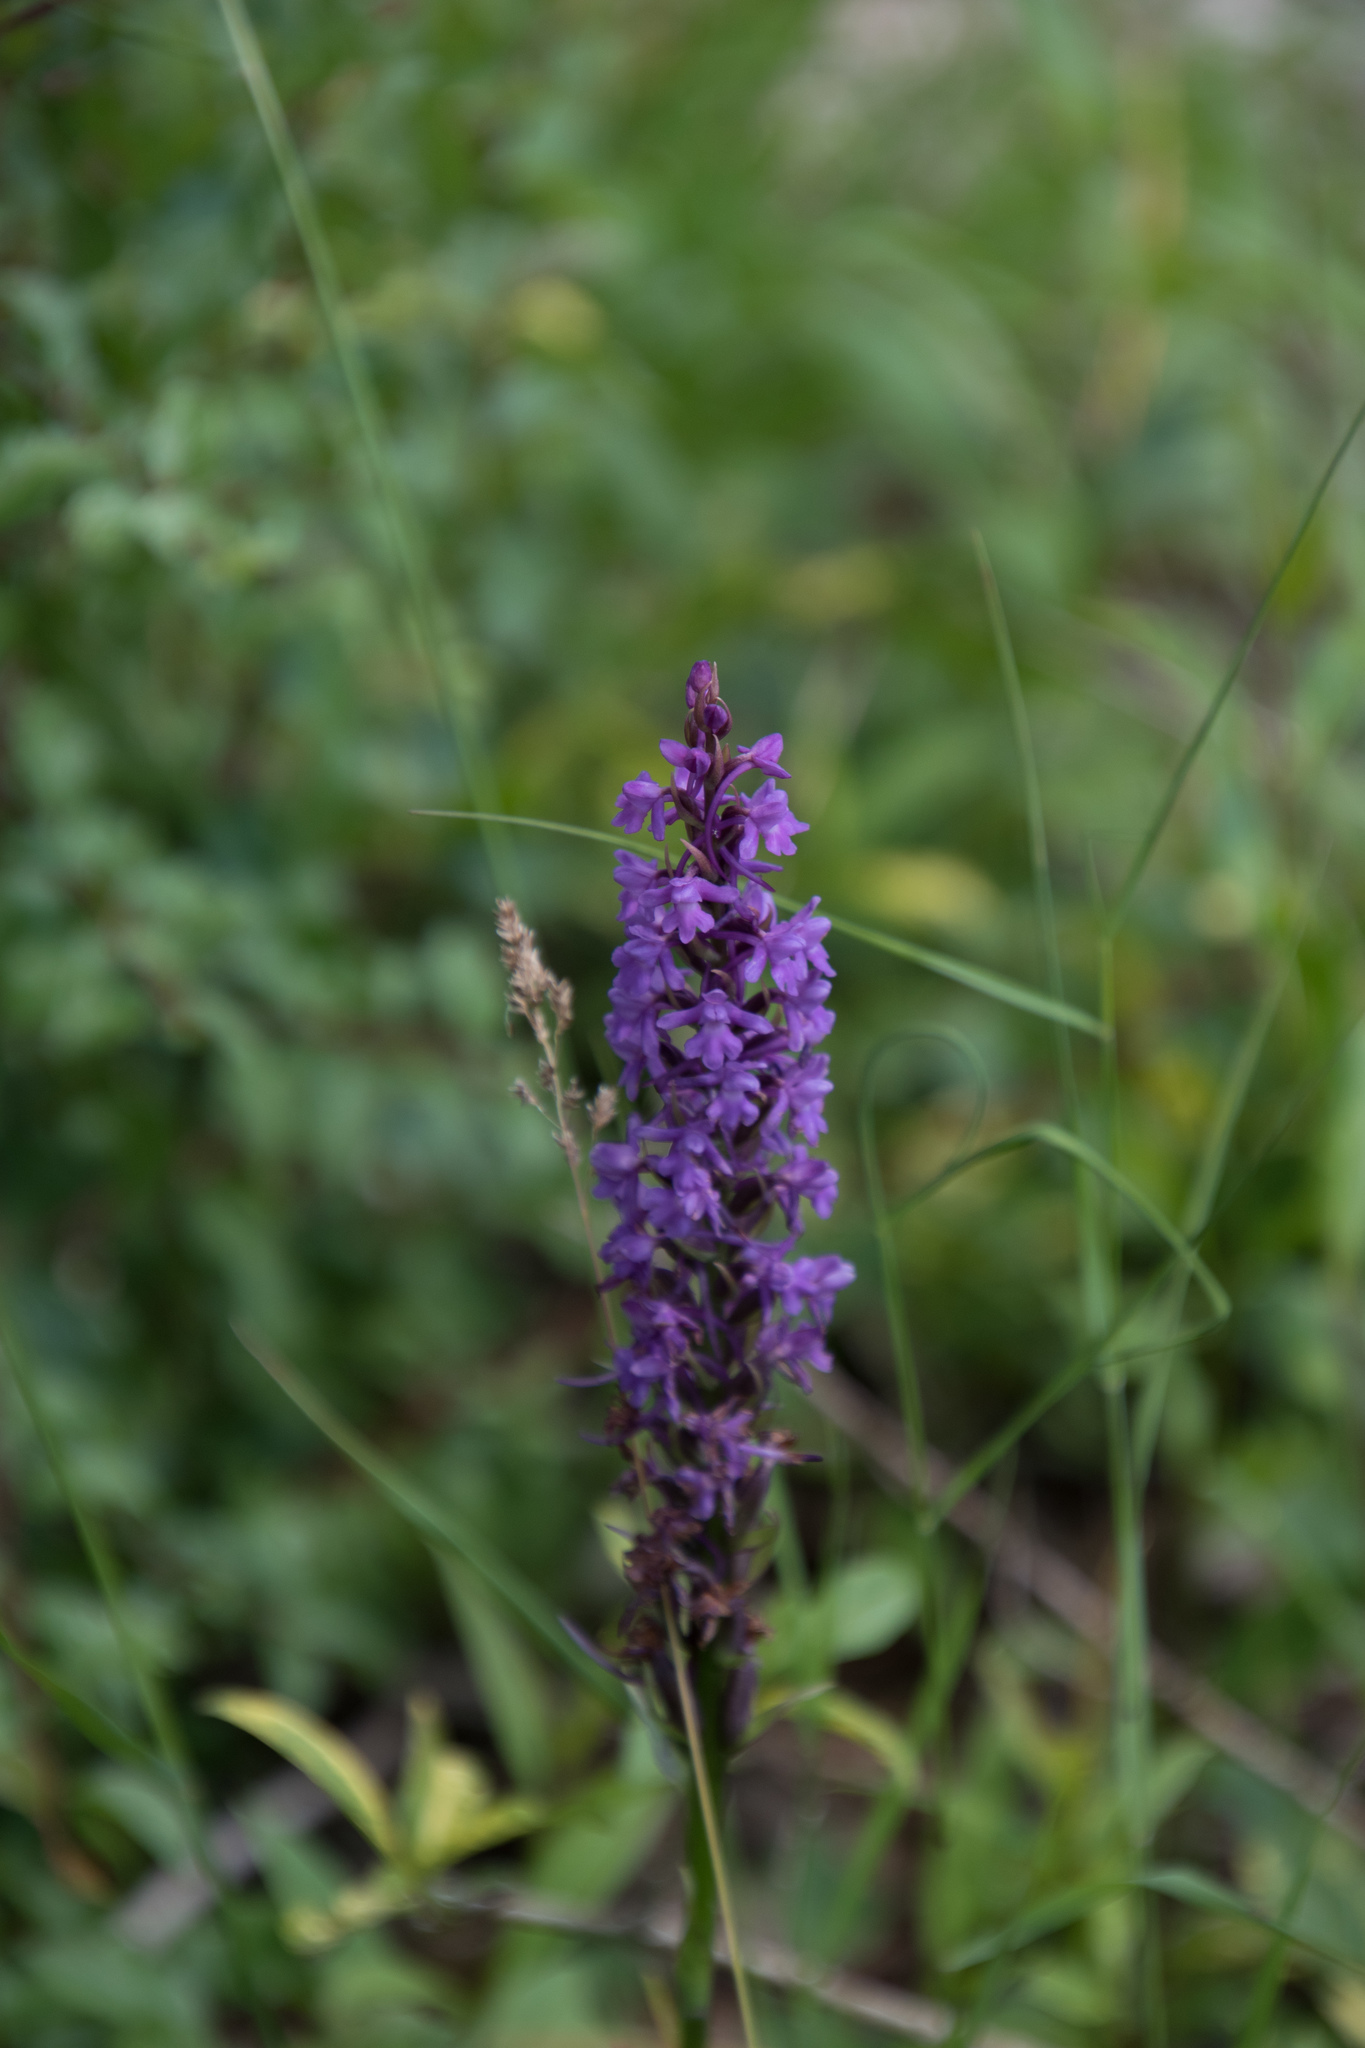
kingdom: Plantae
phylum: Tracheophyta
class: Liliopsida
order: Asparagales
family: Orchidaceae
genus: Gymnadenia
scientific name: Gymnadenia conopsea
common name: Fragrant orchid
